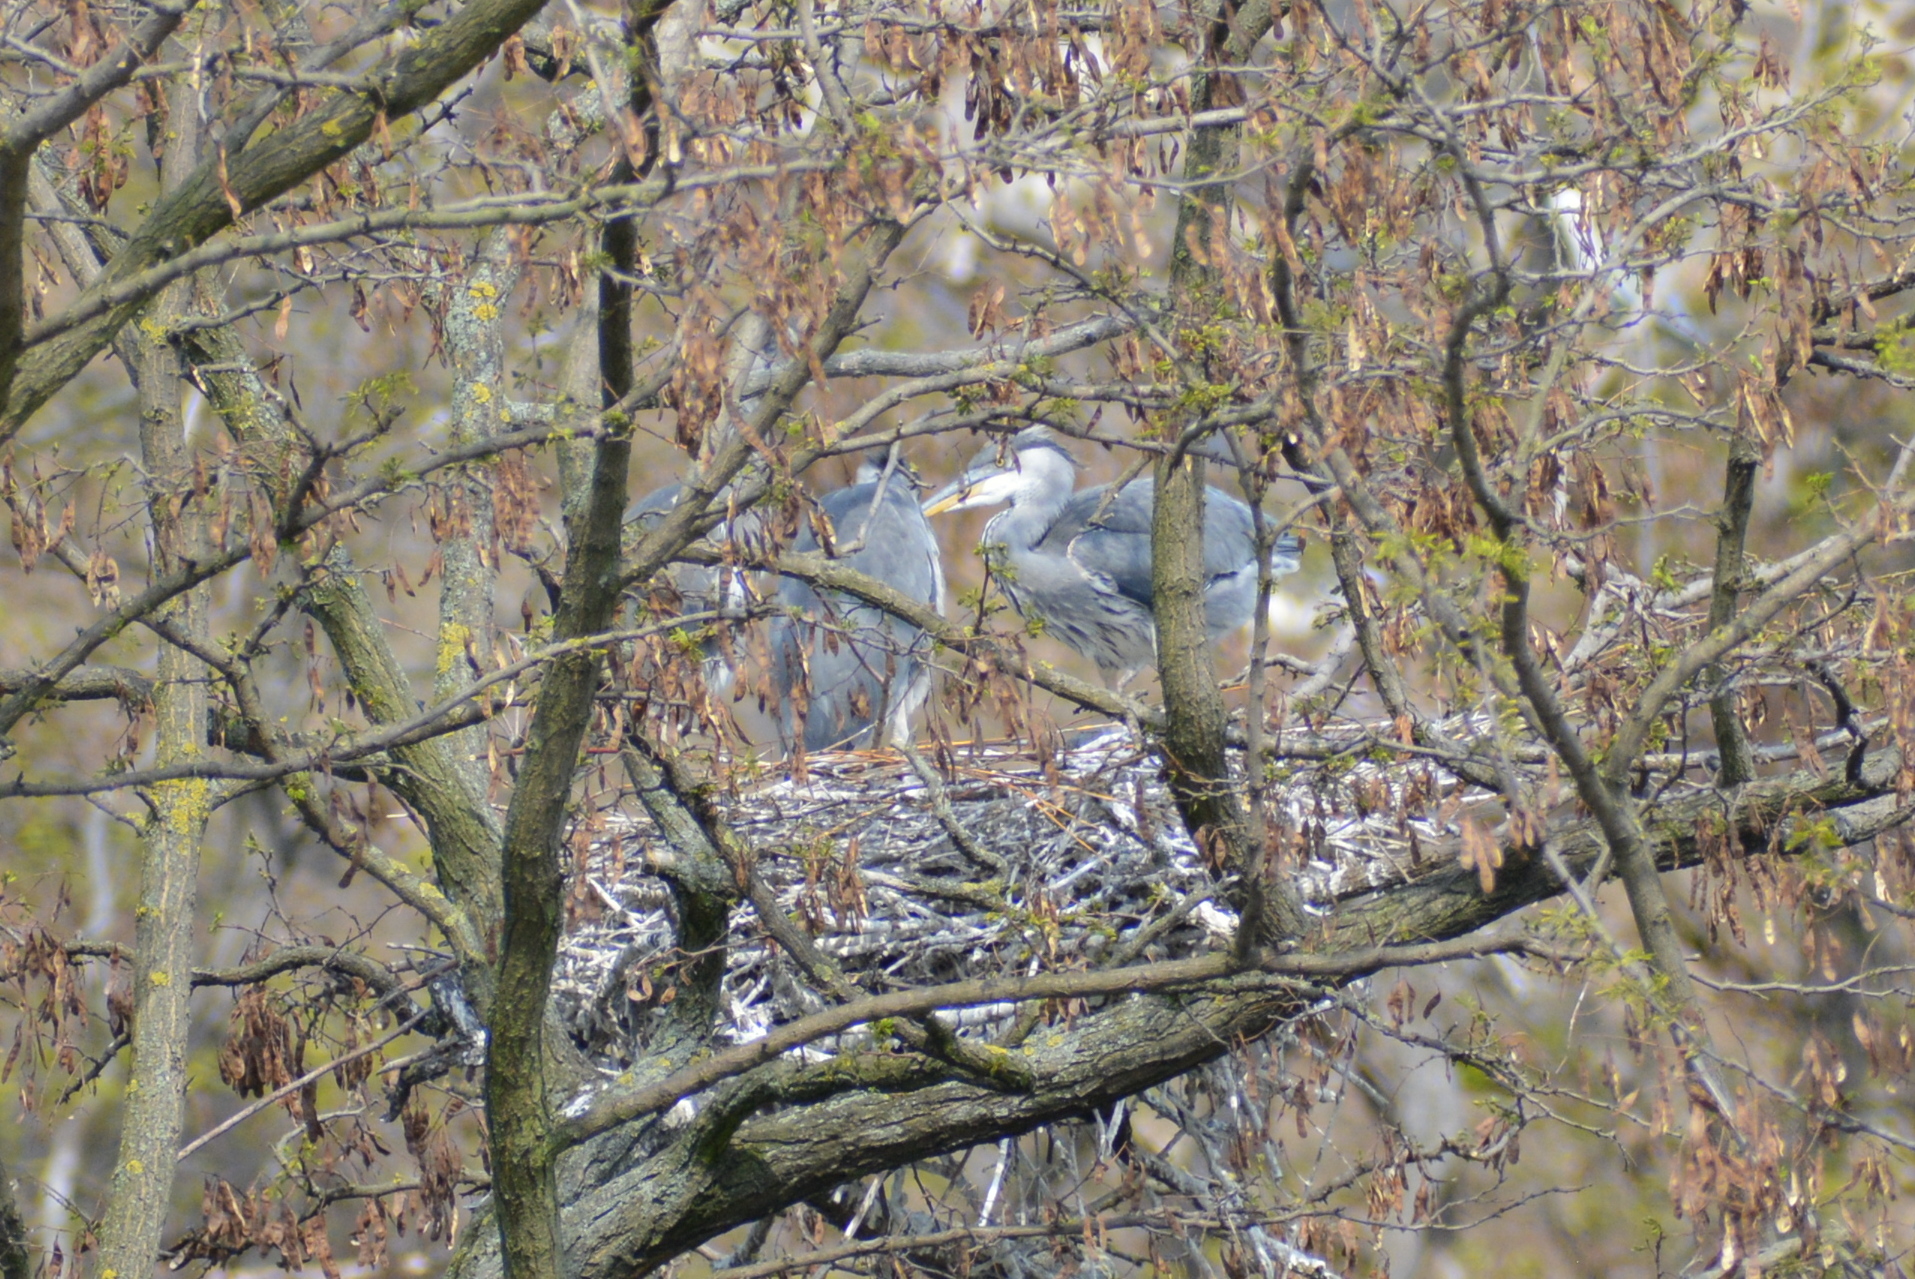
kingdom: Animalia
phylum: Chordata
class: Aves
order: Pelecaniformes
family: Ardeidae
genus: Ardea
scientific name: Ardea cinerea
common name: Grey heron
